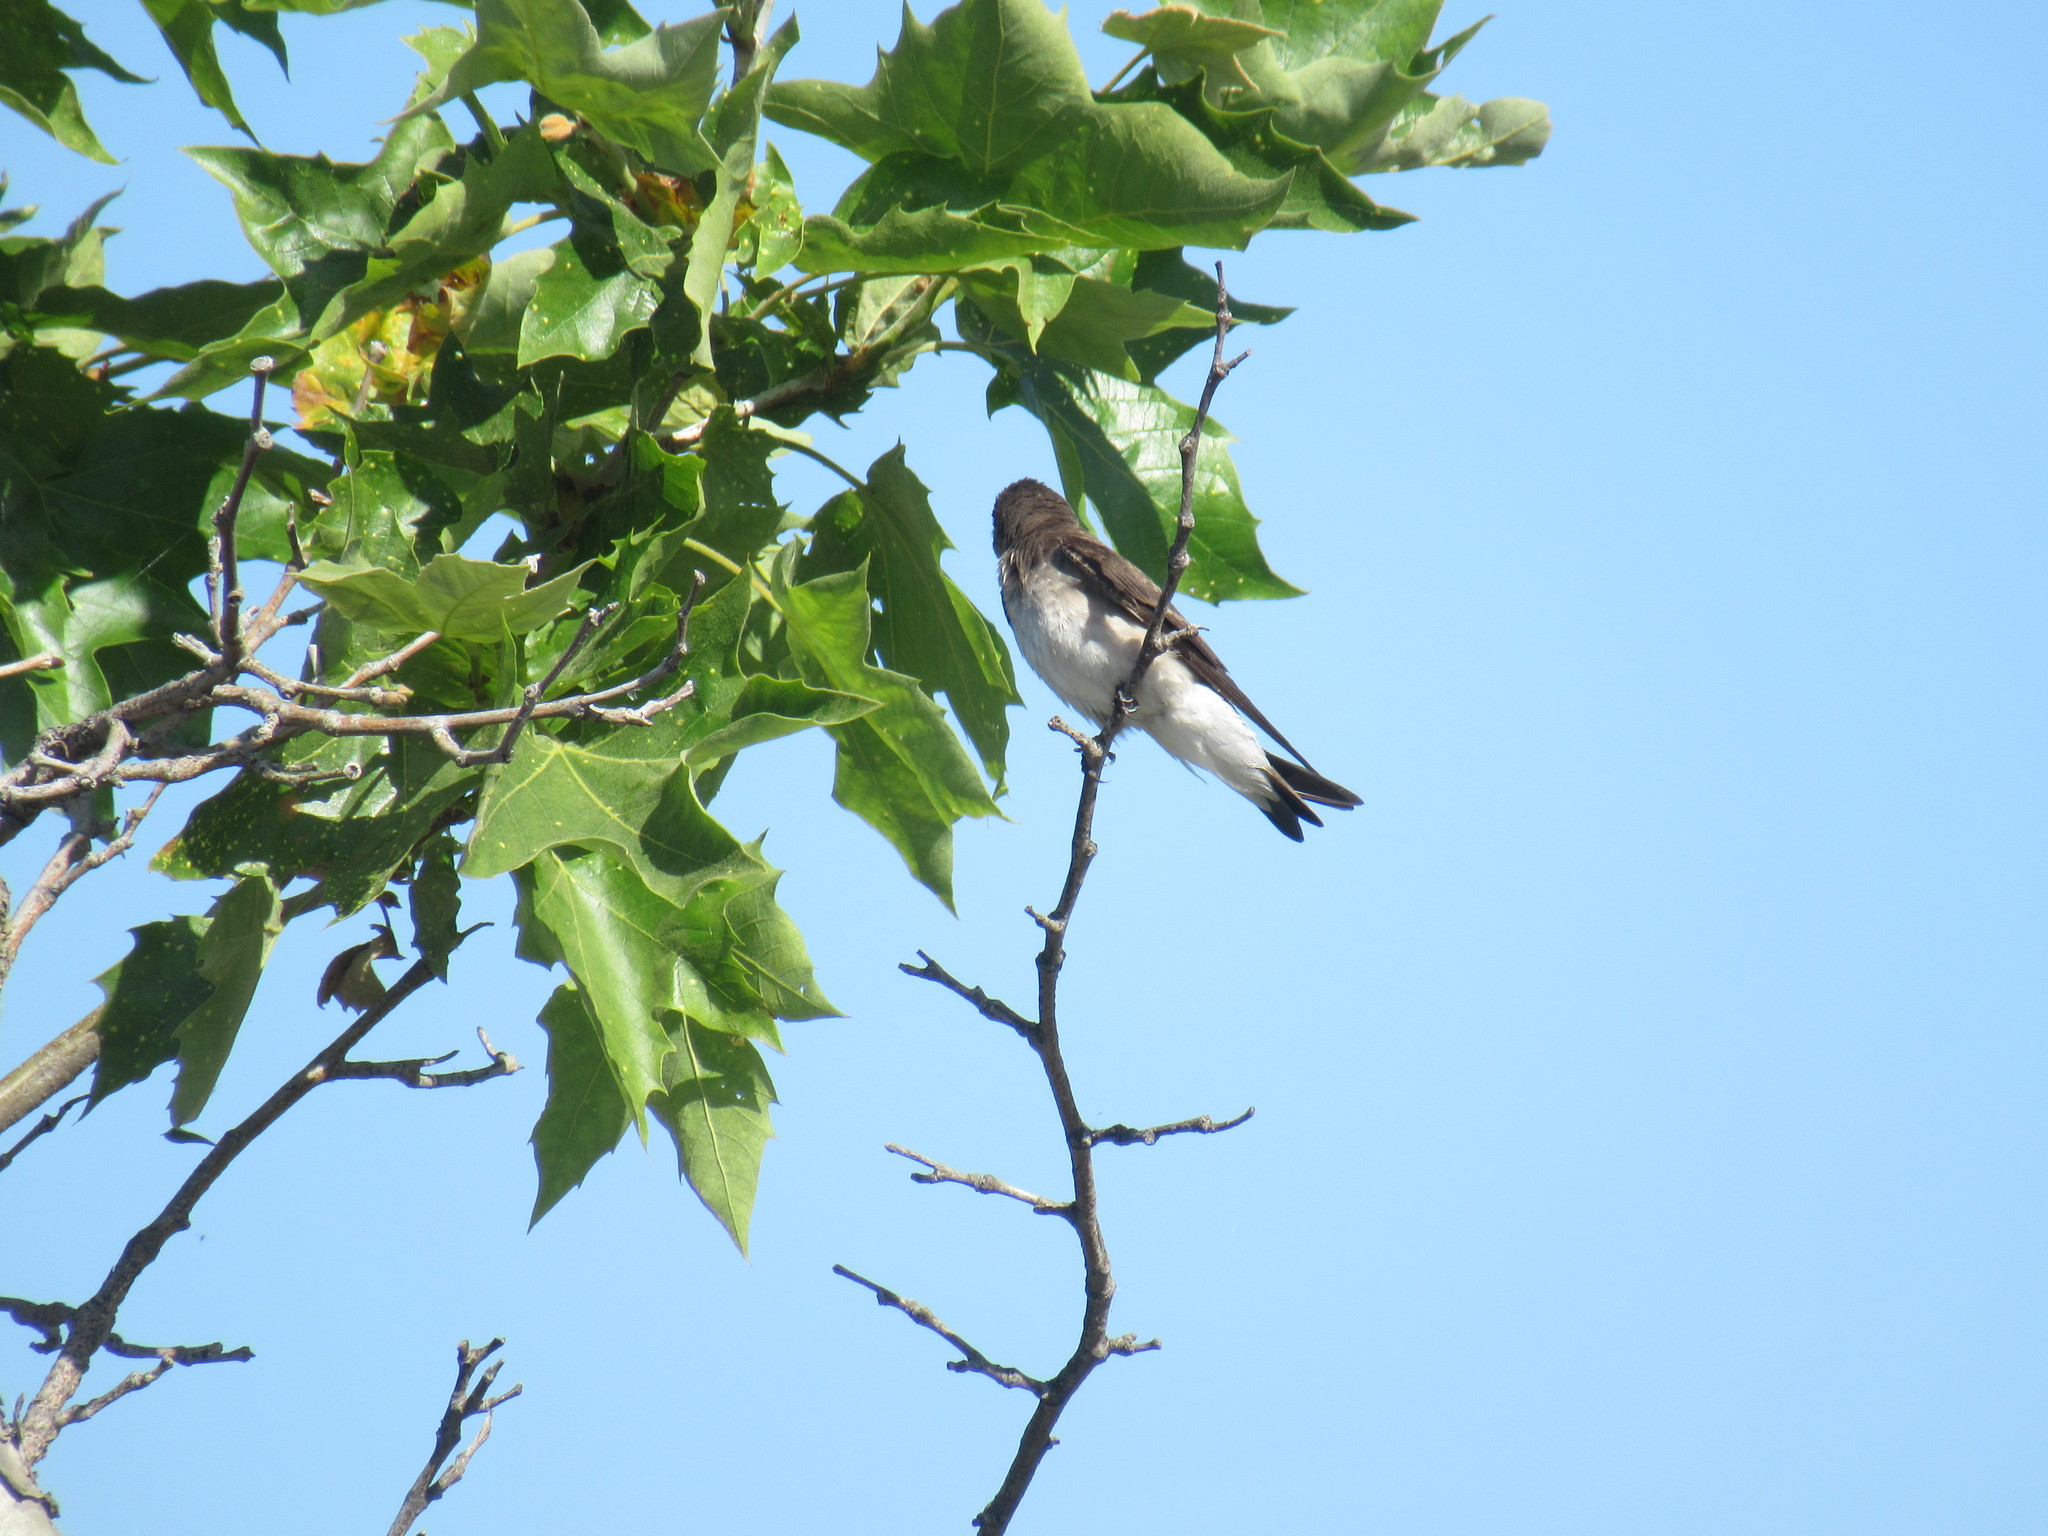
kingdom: Animalia
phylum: Chordata
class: Aves
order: Passeriformes
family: Hirundinidae
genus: Stelgidopteryx
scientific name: Stelgidopteryx serripennis
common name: Northern rough-winged swallow
